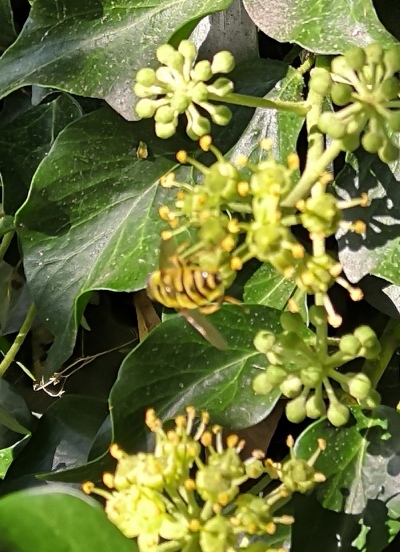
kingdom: Animalia
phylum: Arthropoda
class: Insecta
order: Diptera
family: Syrphidae
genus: Myathropa
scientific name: Myathropa florea
